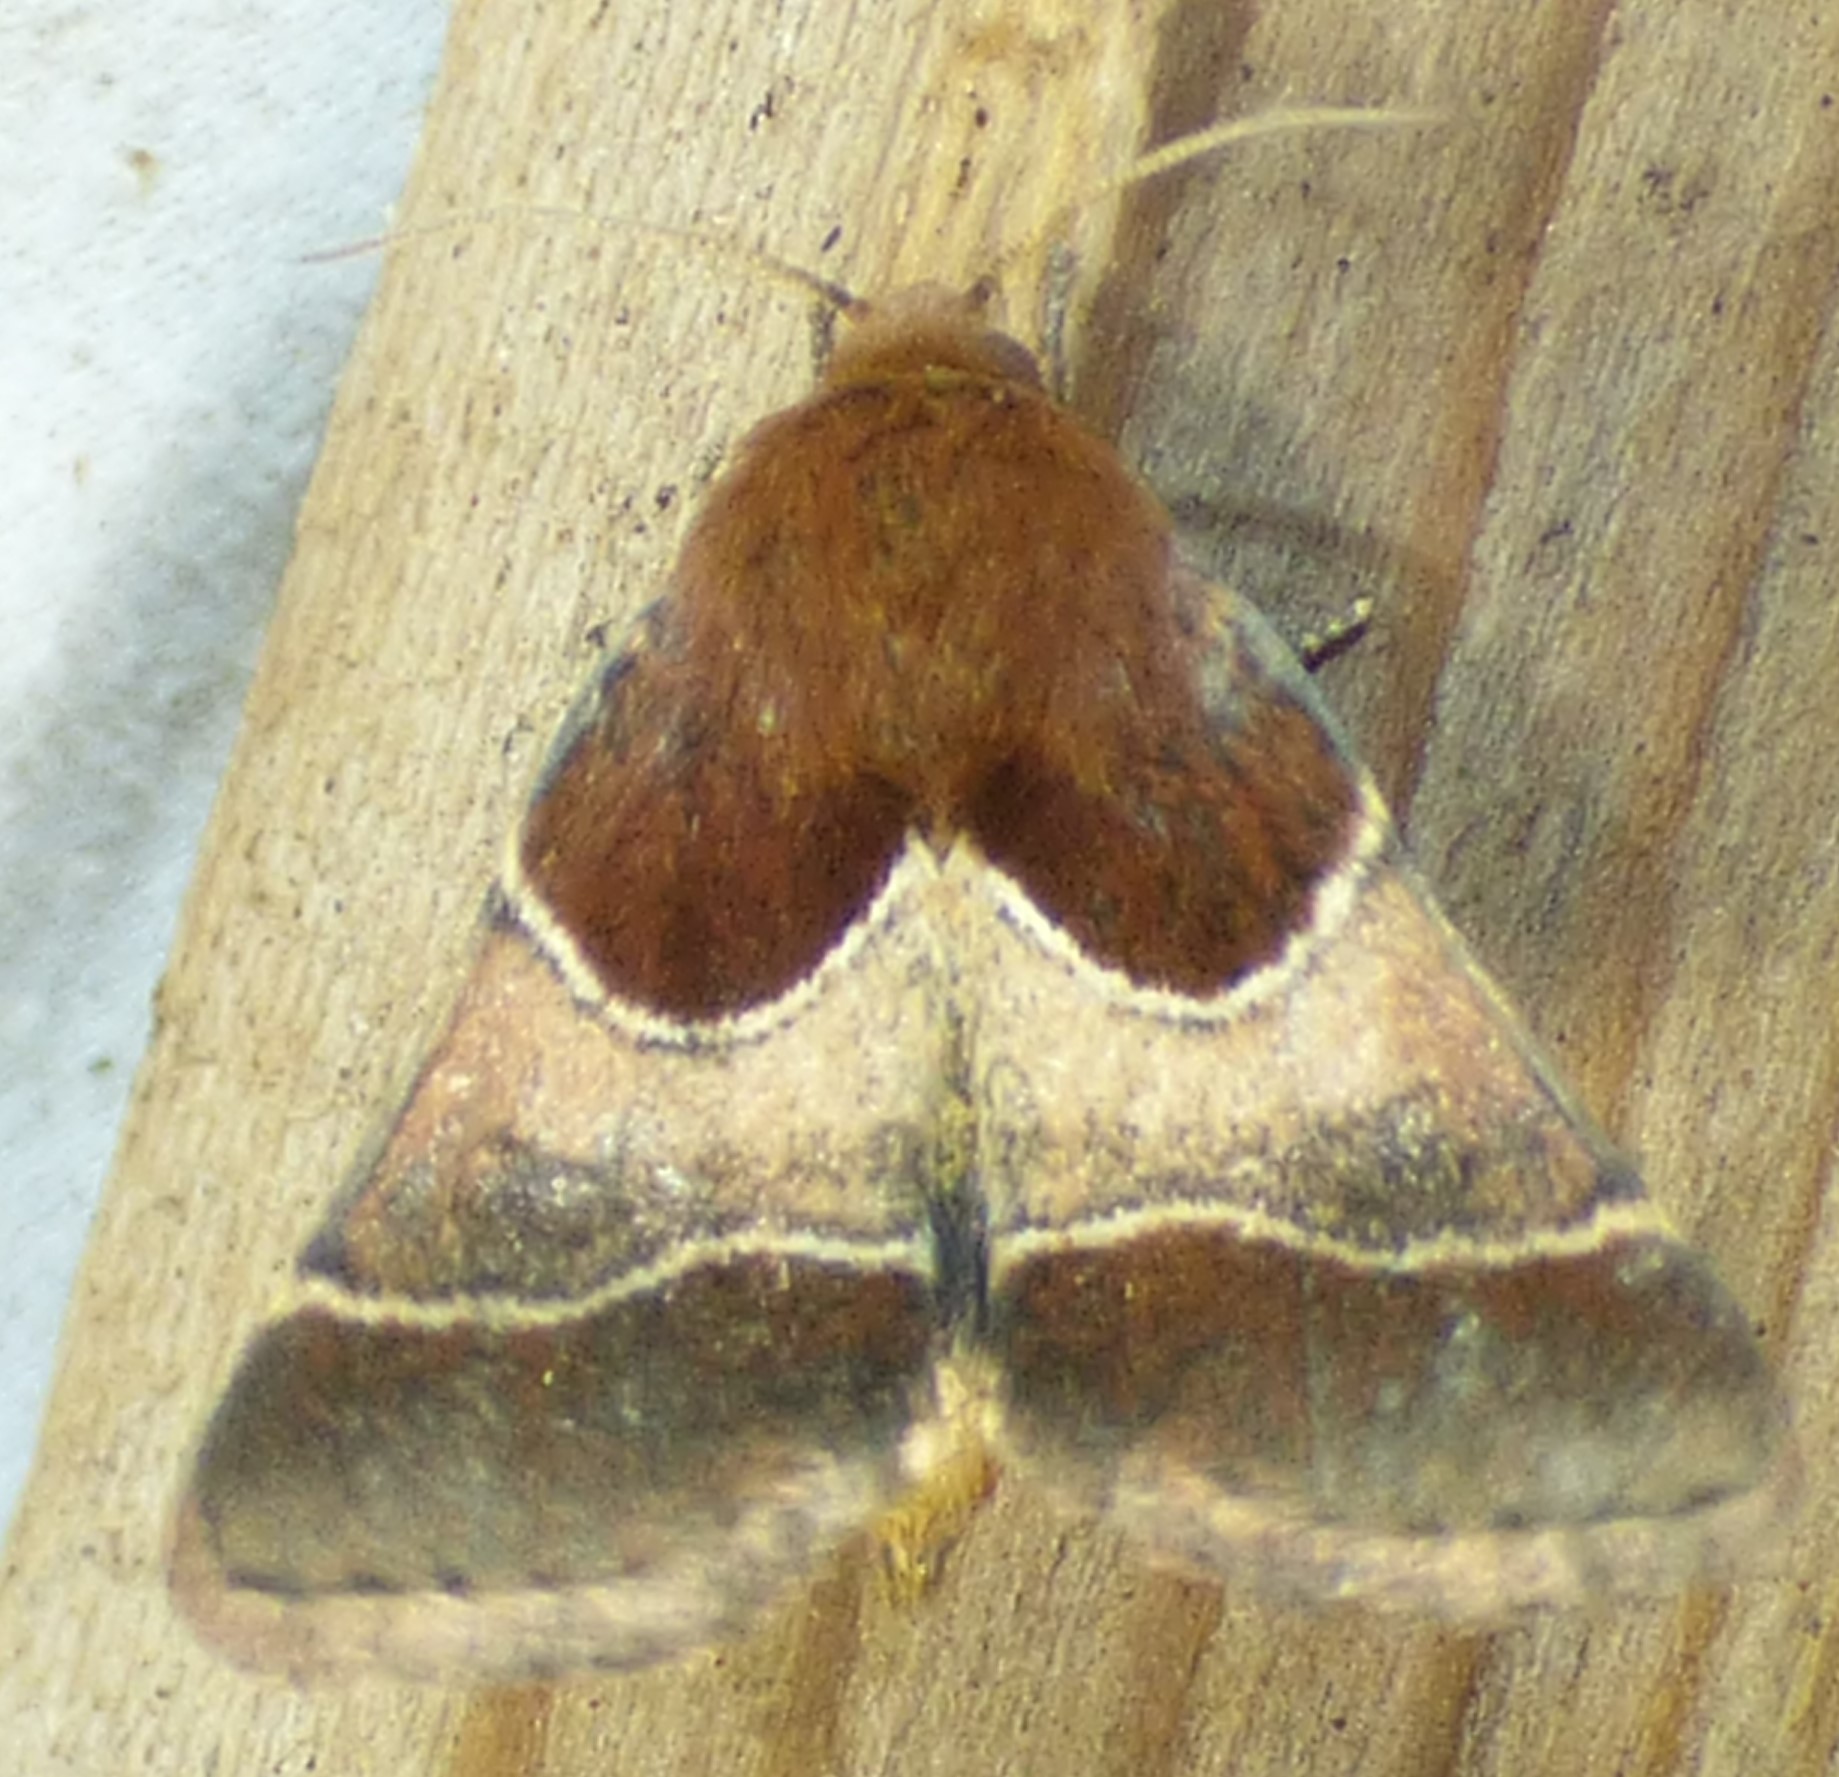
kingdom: Animalia
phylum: Arthropoda
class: Insecta
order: Lepidoptera
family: Noctuidae
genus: Schinia
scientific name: Schinia arcigera
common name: Arcigera flower moth
